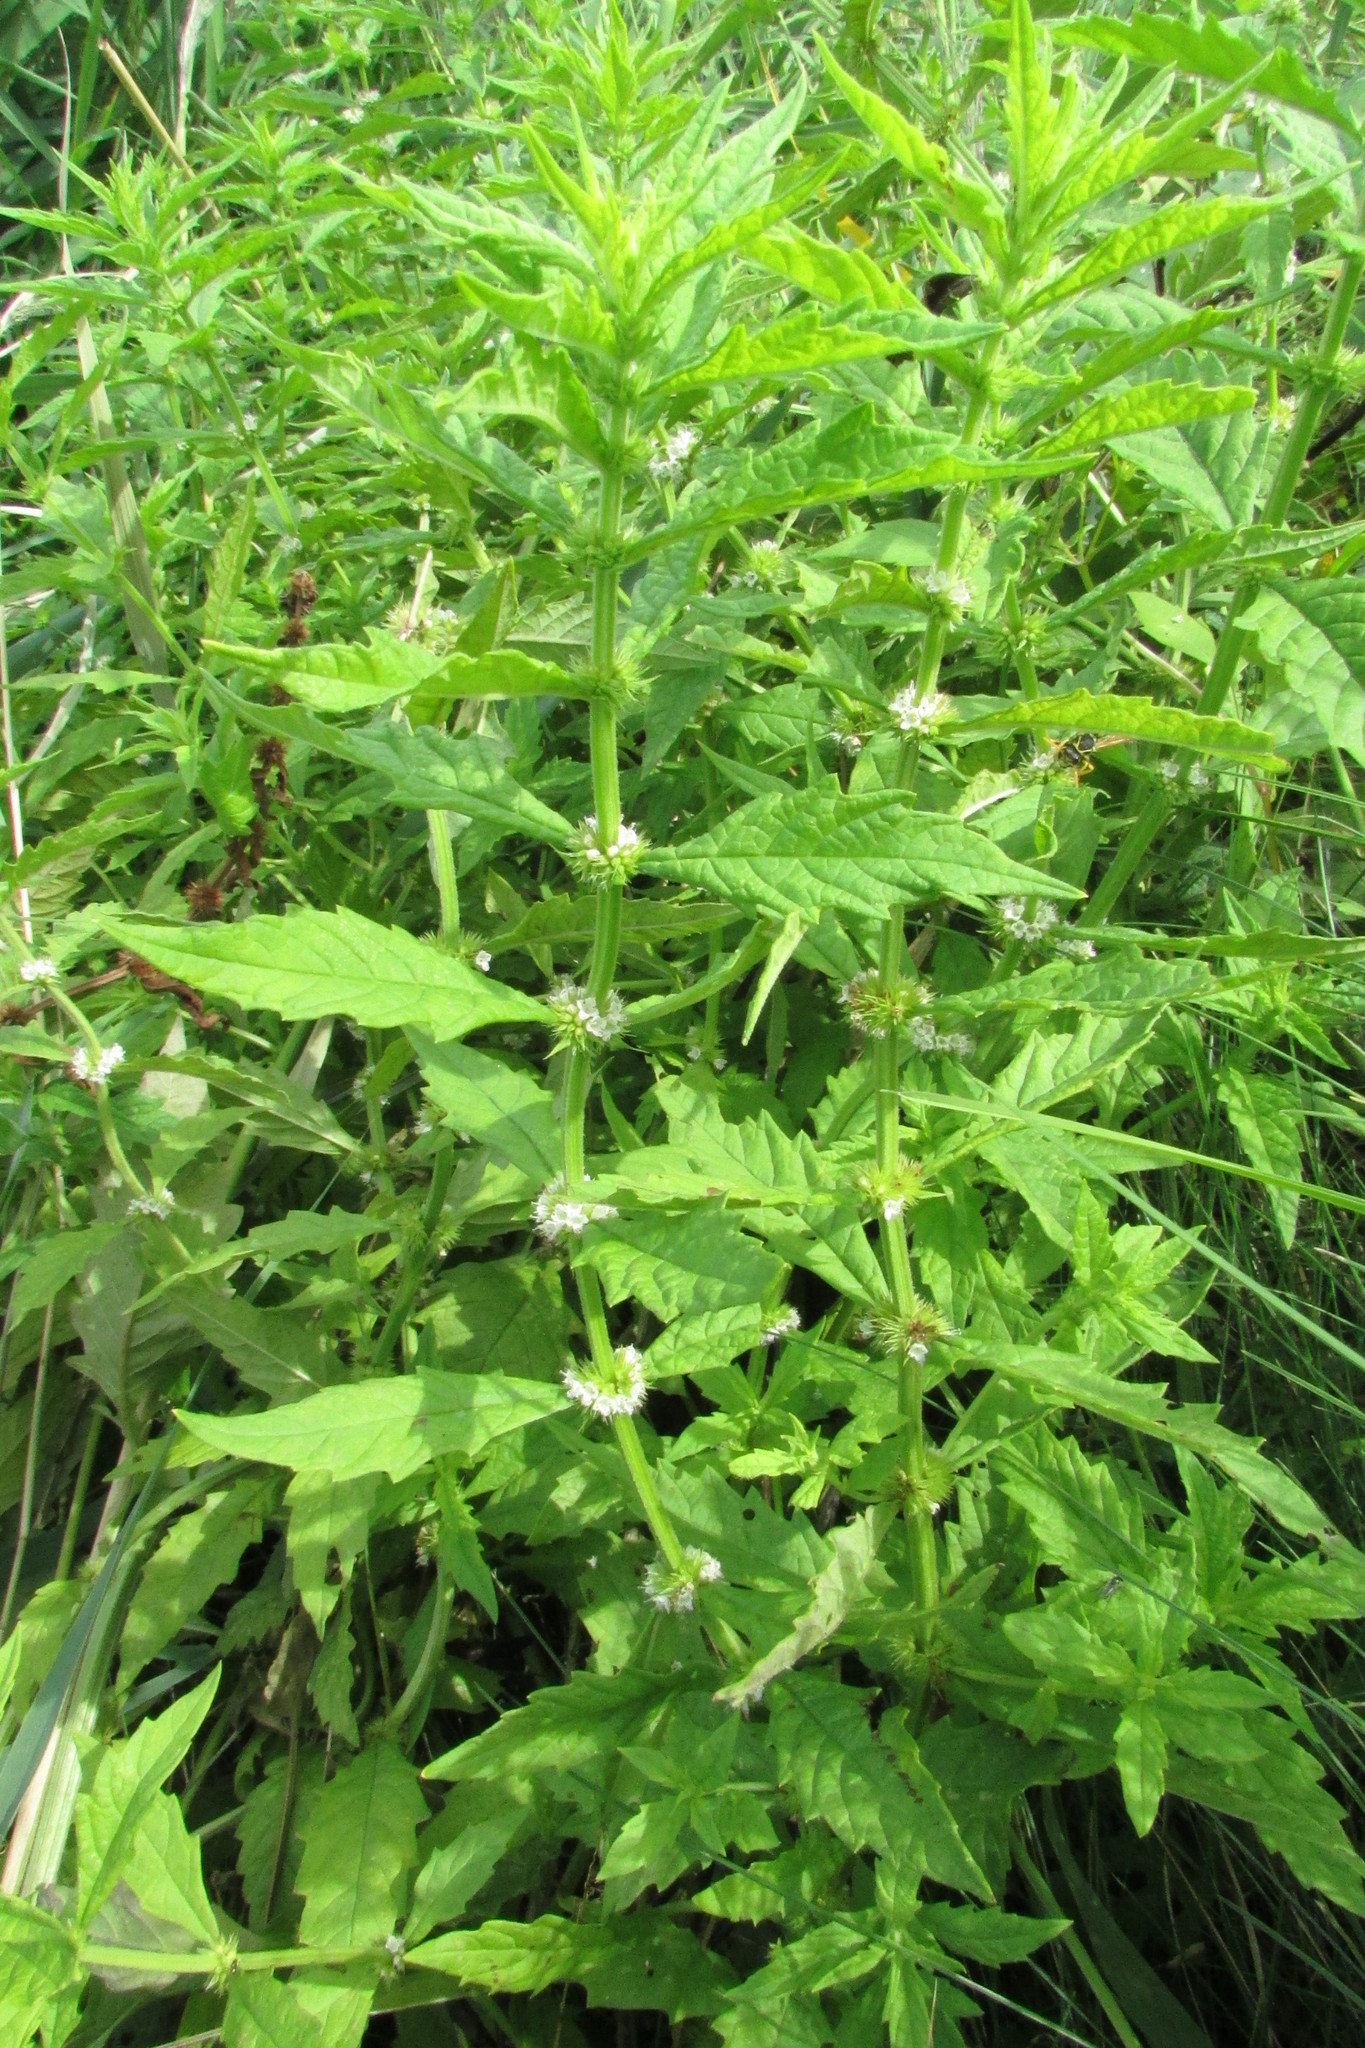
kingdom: Plantae
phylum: Tracheophyta
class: Magnoliopsida
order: Lamiales
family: Lamiaceae
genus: Lycopus
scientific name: Lycopus europaeus
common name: European bugleweed
